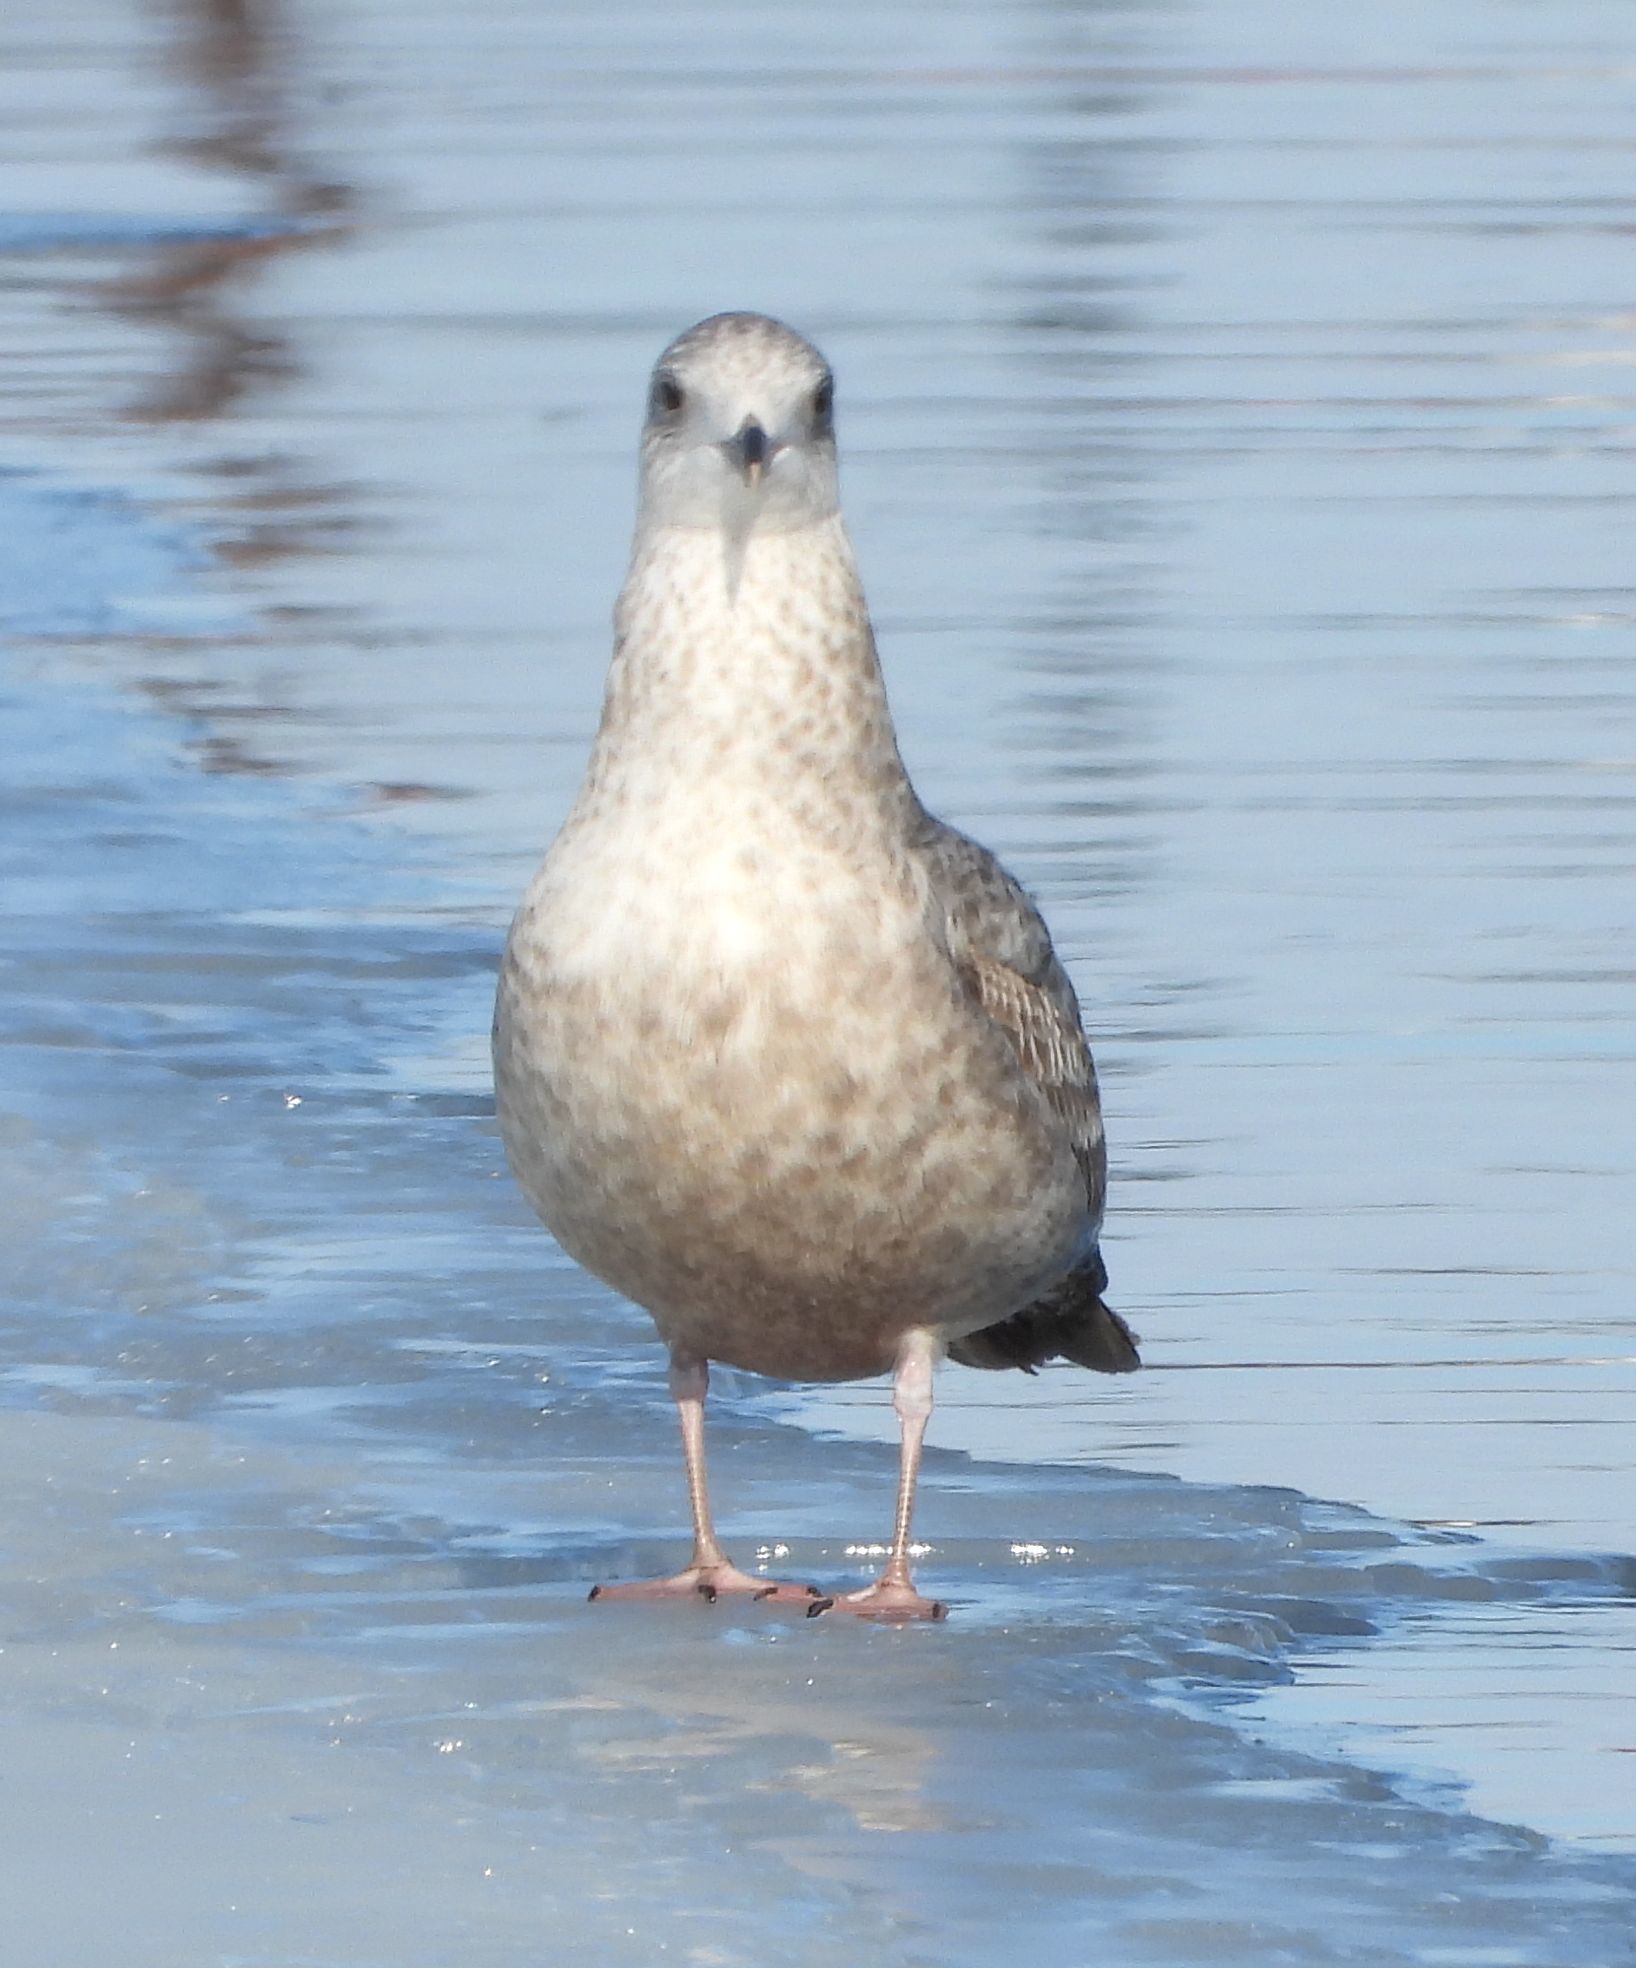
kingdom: Animalia
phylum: Chordata
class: Aves
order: Charadriiformes
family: Laridae
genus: Larus
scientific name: Larus argentatus
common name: Herring gull
